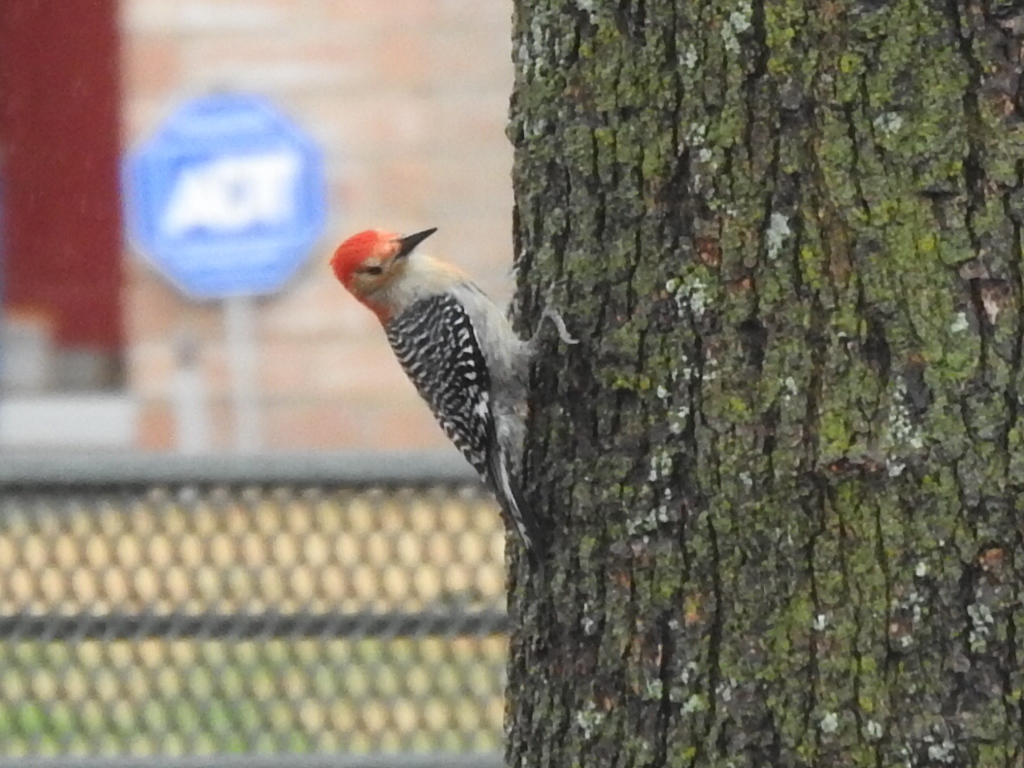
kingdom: Animalia
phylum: Chordata
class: Aves
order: Piciformes
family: Picidae
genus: Melanerpes
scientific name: Melanerpes carolinus
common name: Red-bellied woodpecker
